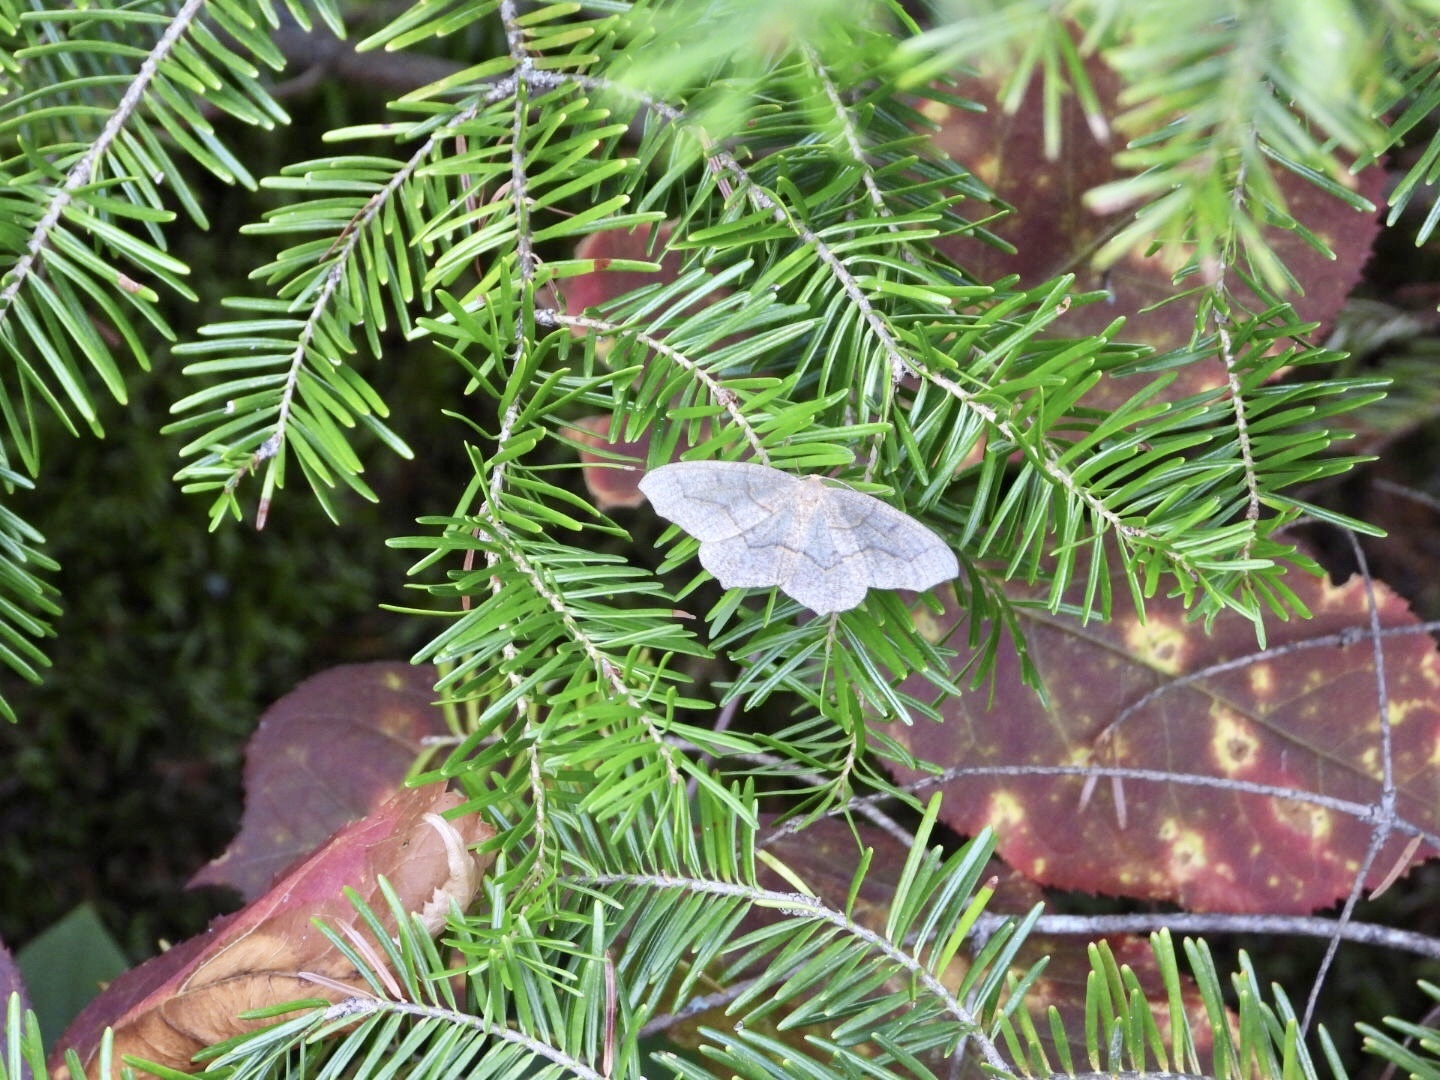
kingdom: Animalia
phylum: Arthropoda
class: Insecta
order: Lepidoptera
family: Geometridae
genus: Lambdina
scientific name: Lambdina fiscellaria
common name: Hemlock looper
